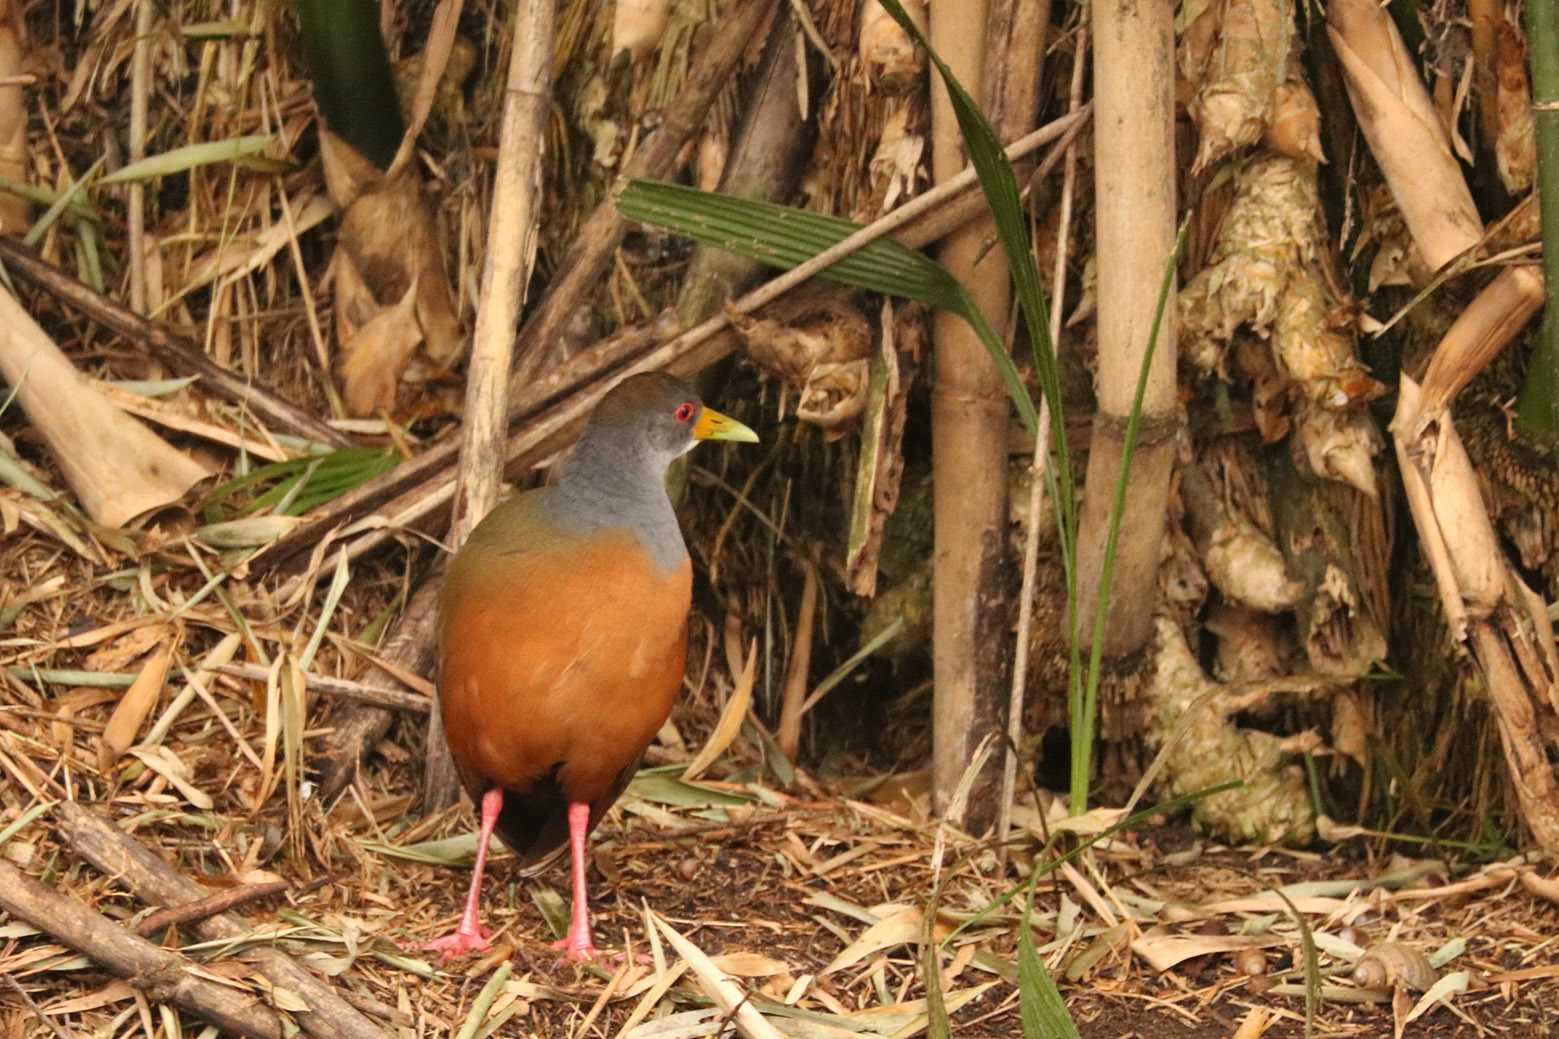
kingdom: Animalia
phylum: Chordata
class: Aves
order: Gruiformes
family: Rallidae
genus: Aramides
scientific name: Aramides cajanea
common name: Gray-necked wood-rail
